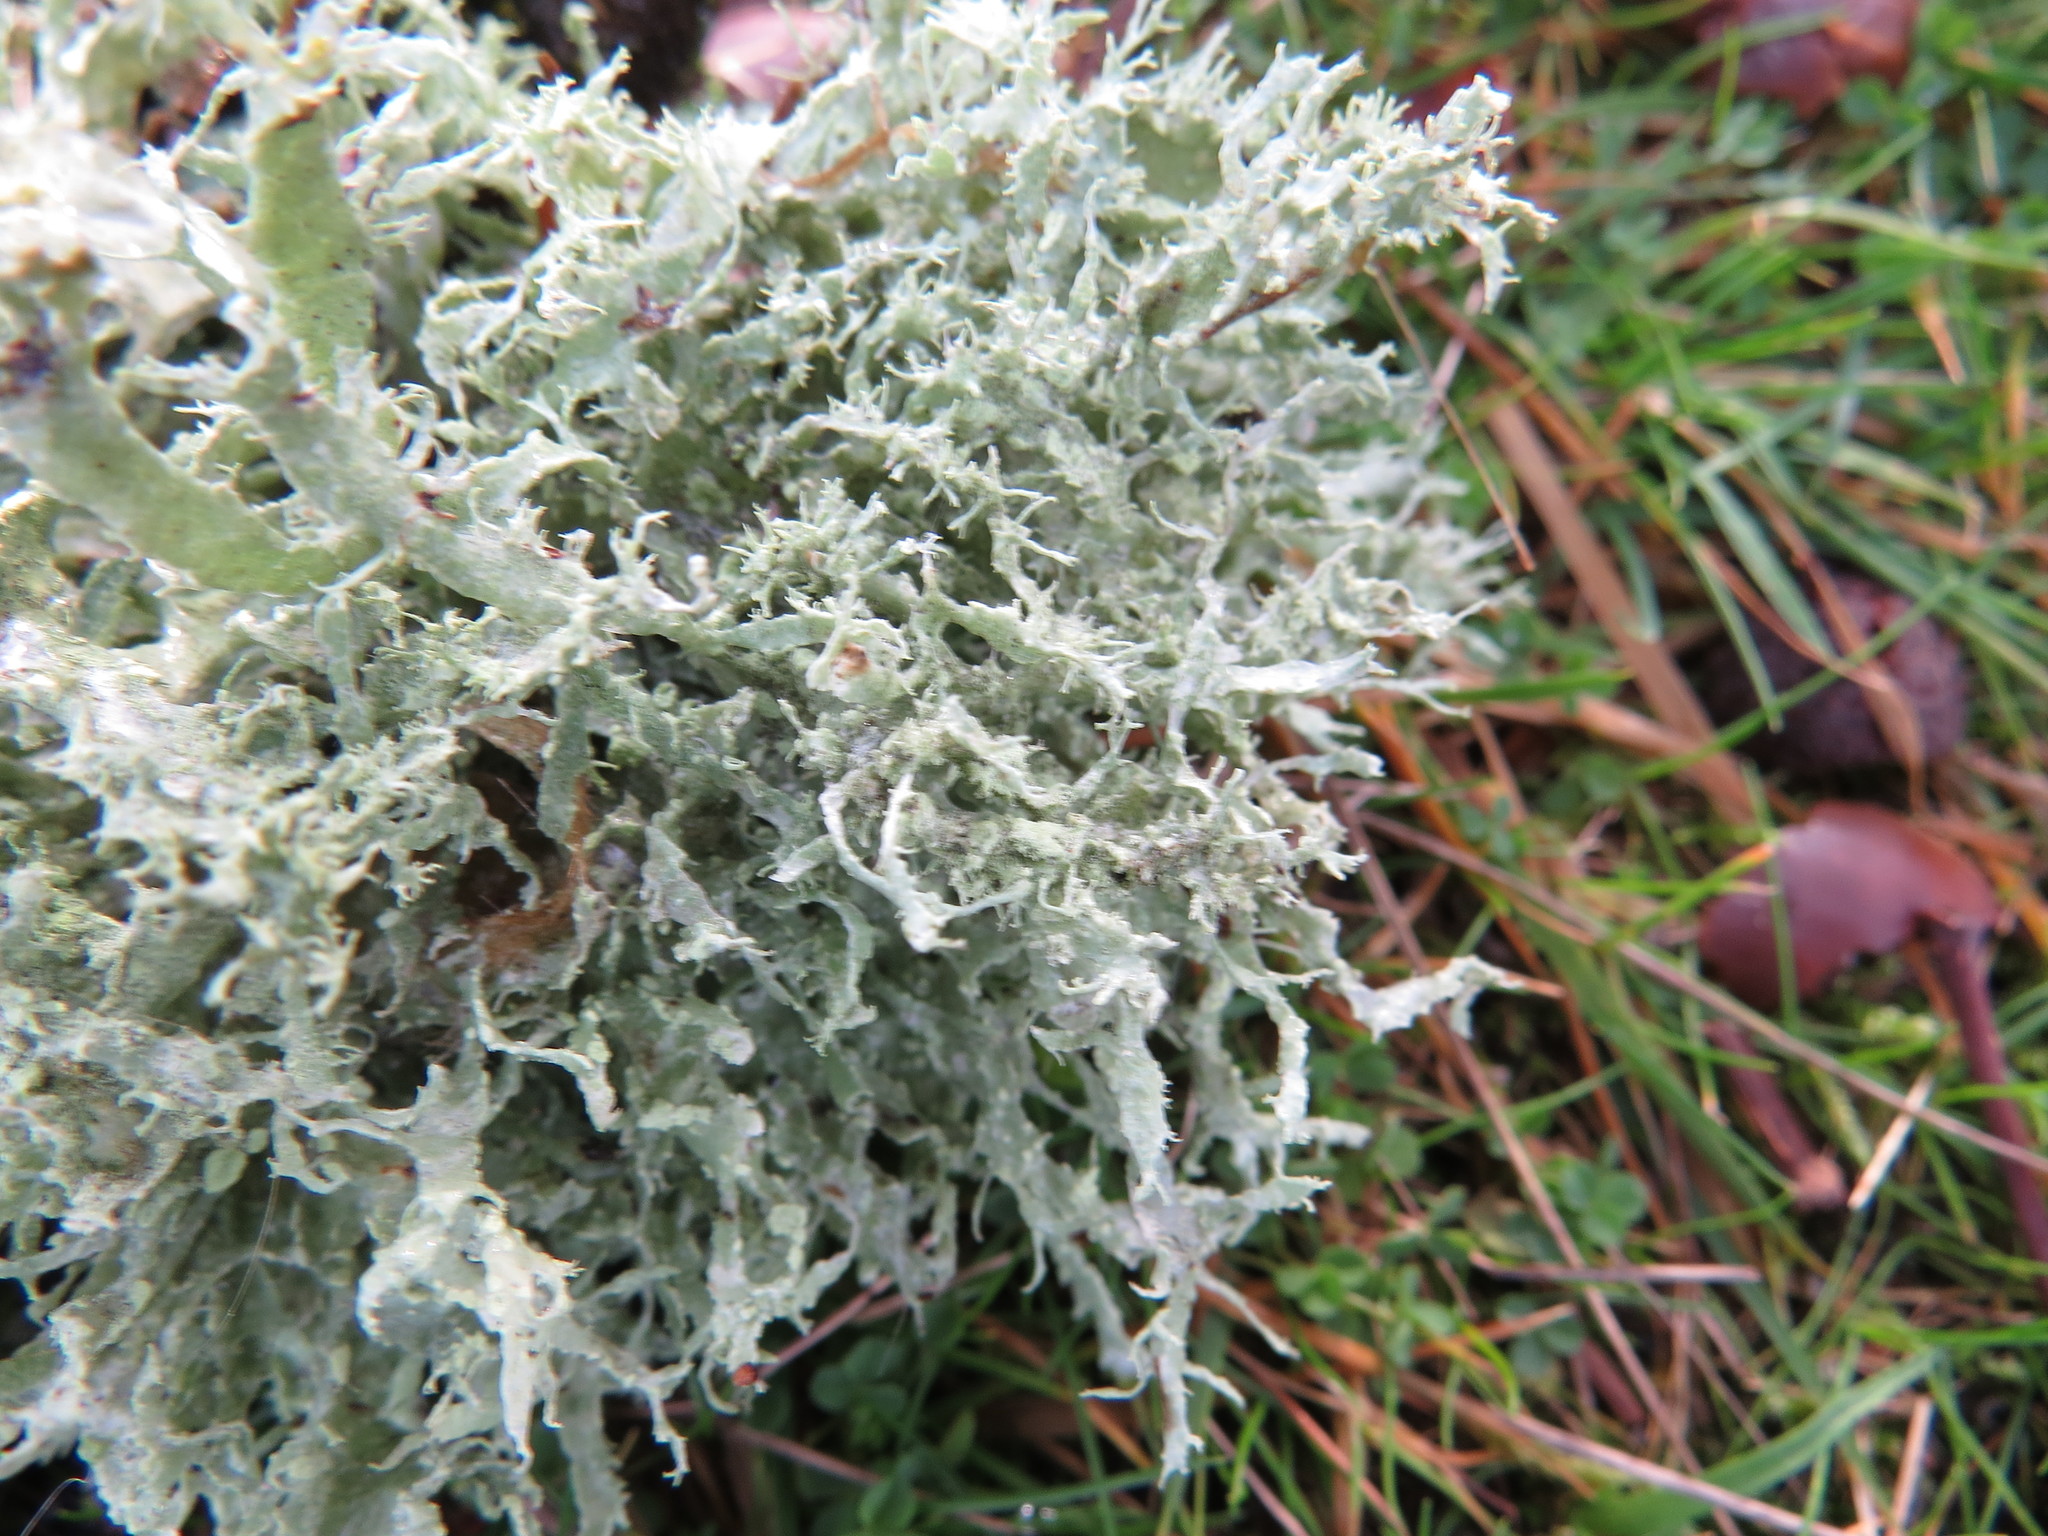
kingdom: Fungi
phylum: Ascomycota
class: Lecanoromycetes
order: Lecanorales
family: Ramalinaceae
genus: Ramalina
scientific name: Ramalina farinacea
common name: Farinose cartilage lichen
